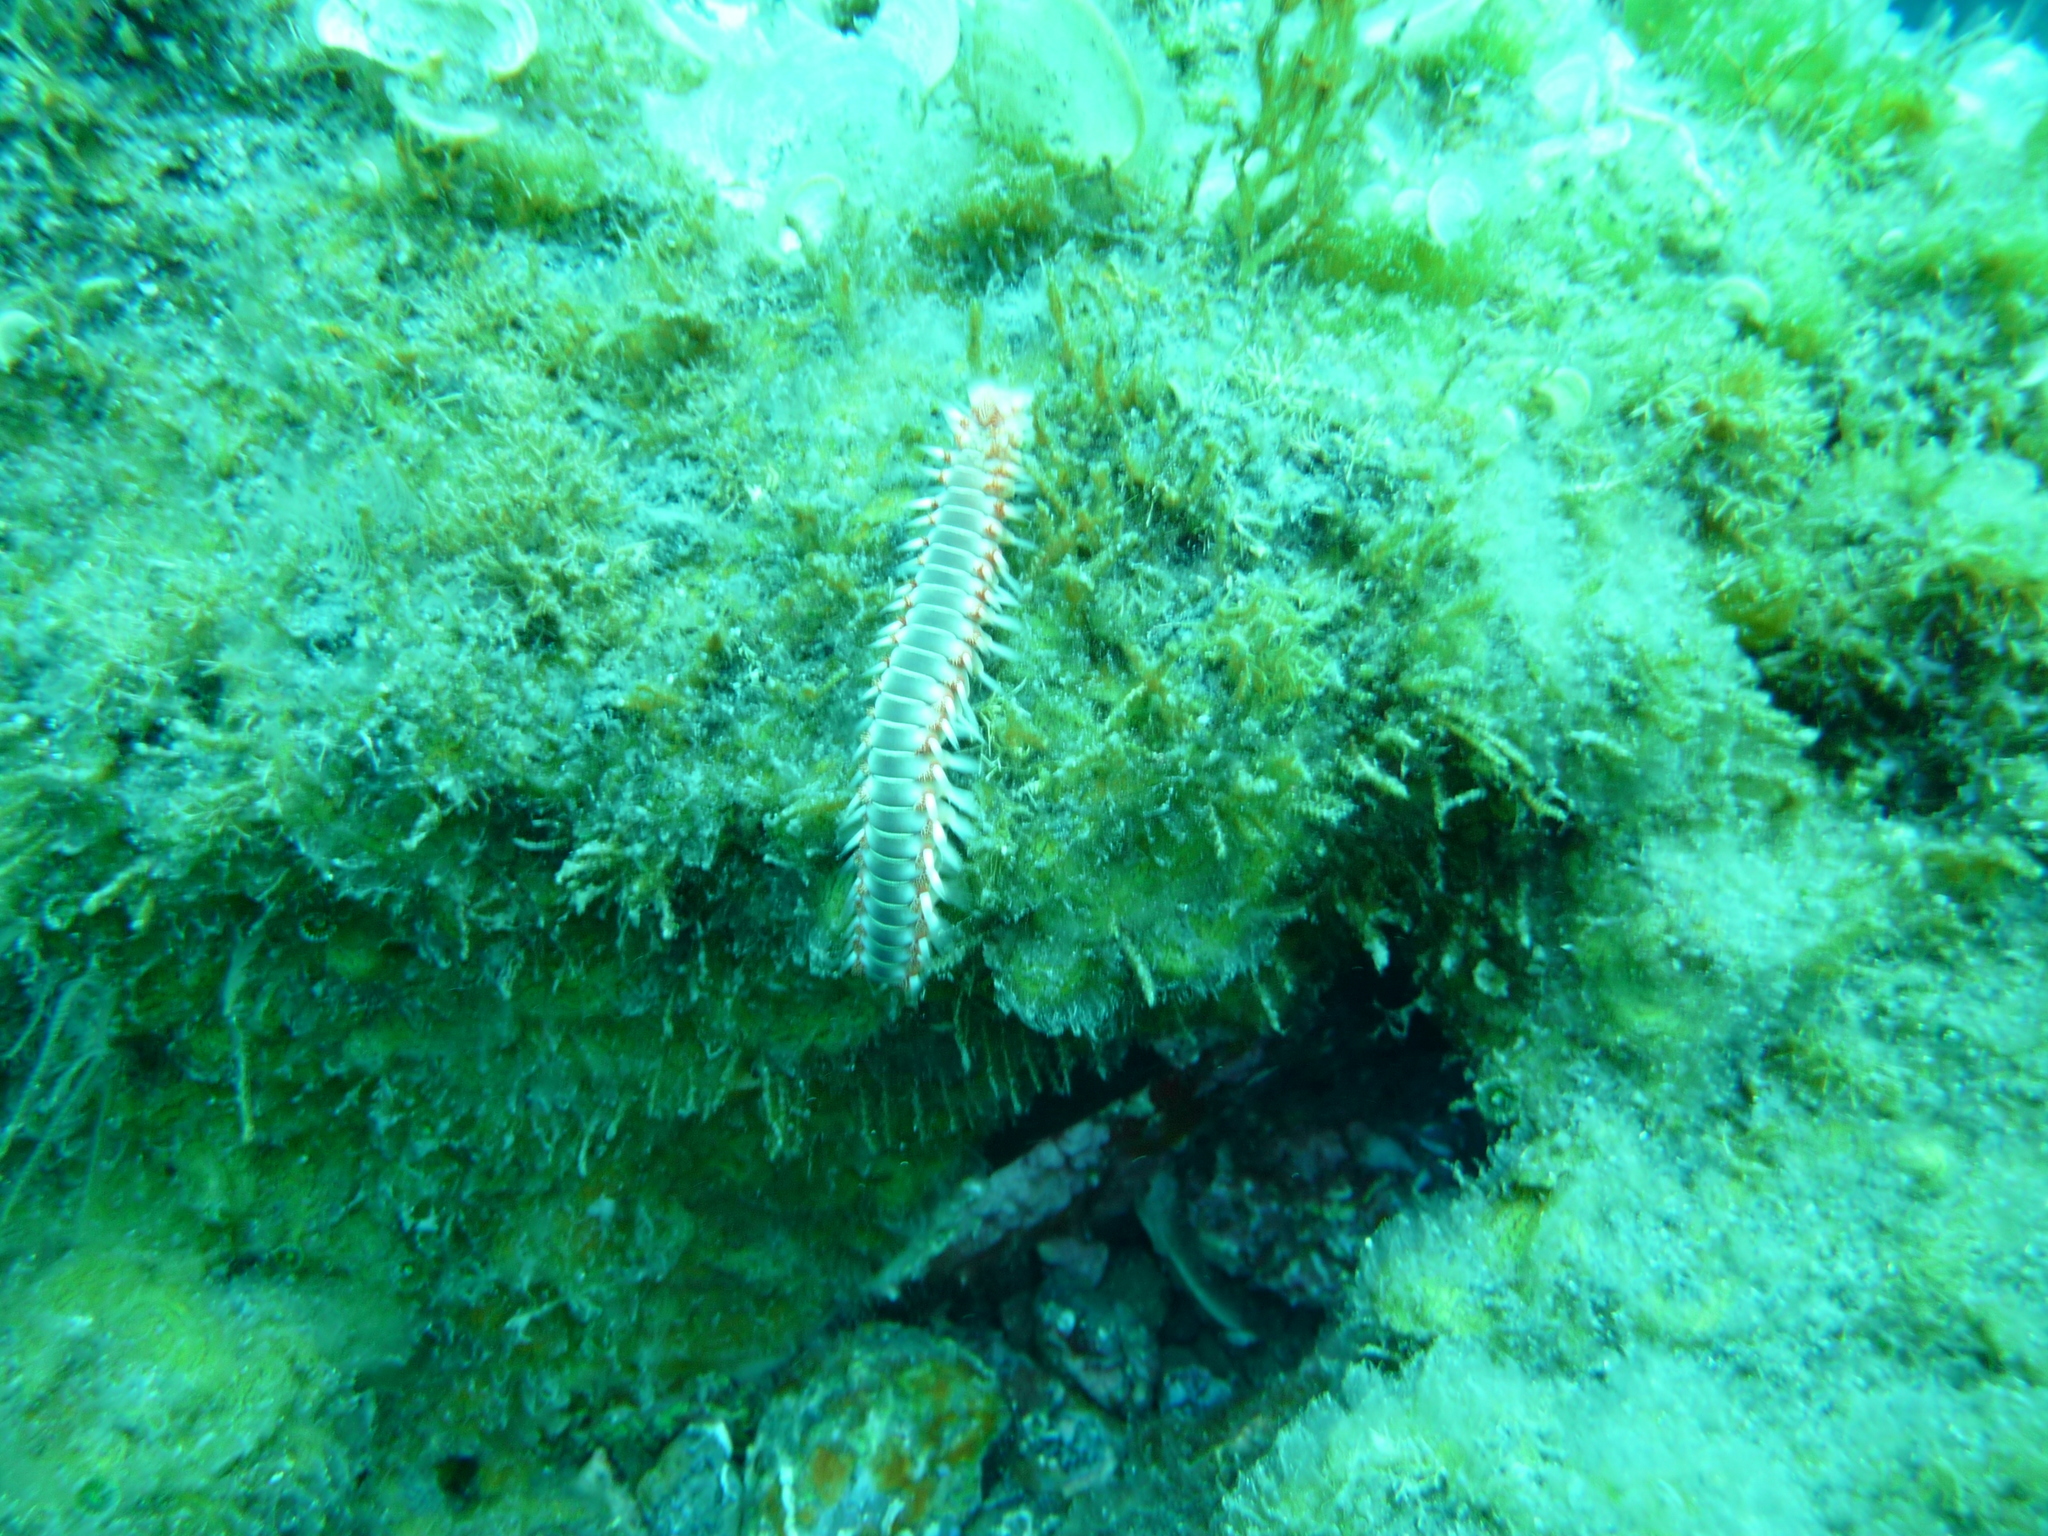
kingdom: Animalia
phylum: Annelida
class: Polychaeta
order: Amphinomida
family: Amphinomidae
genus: Hermodice
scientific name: Hermodice carunculata
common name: Bearded fireworm
